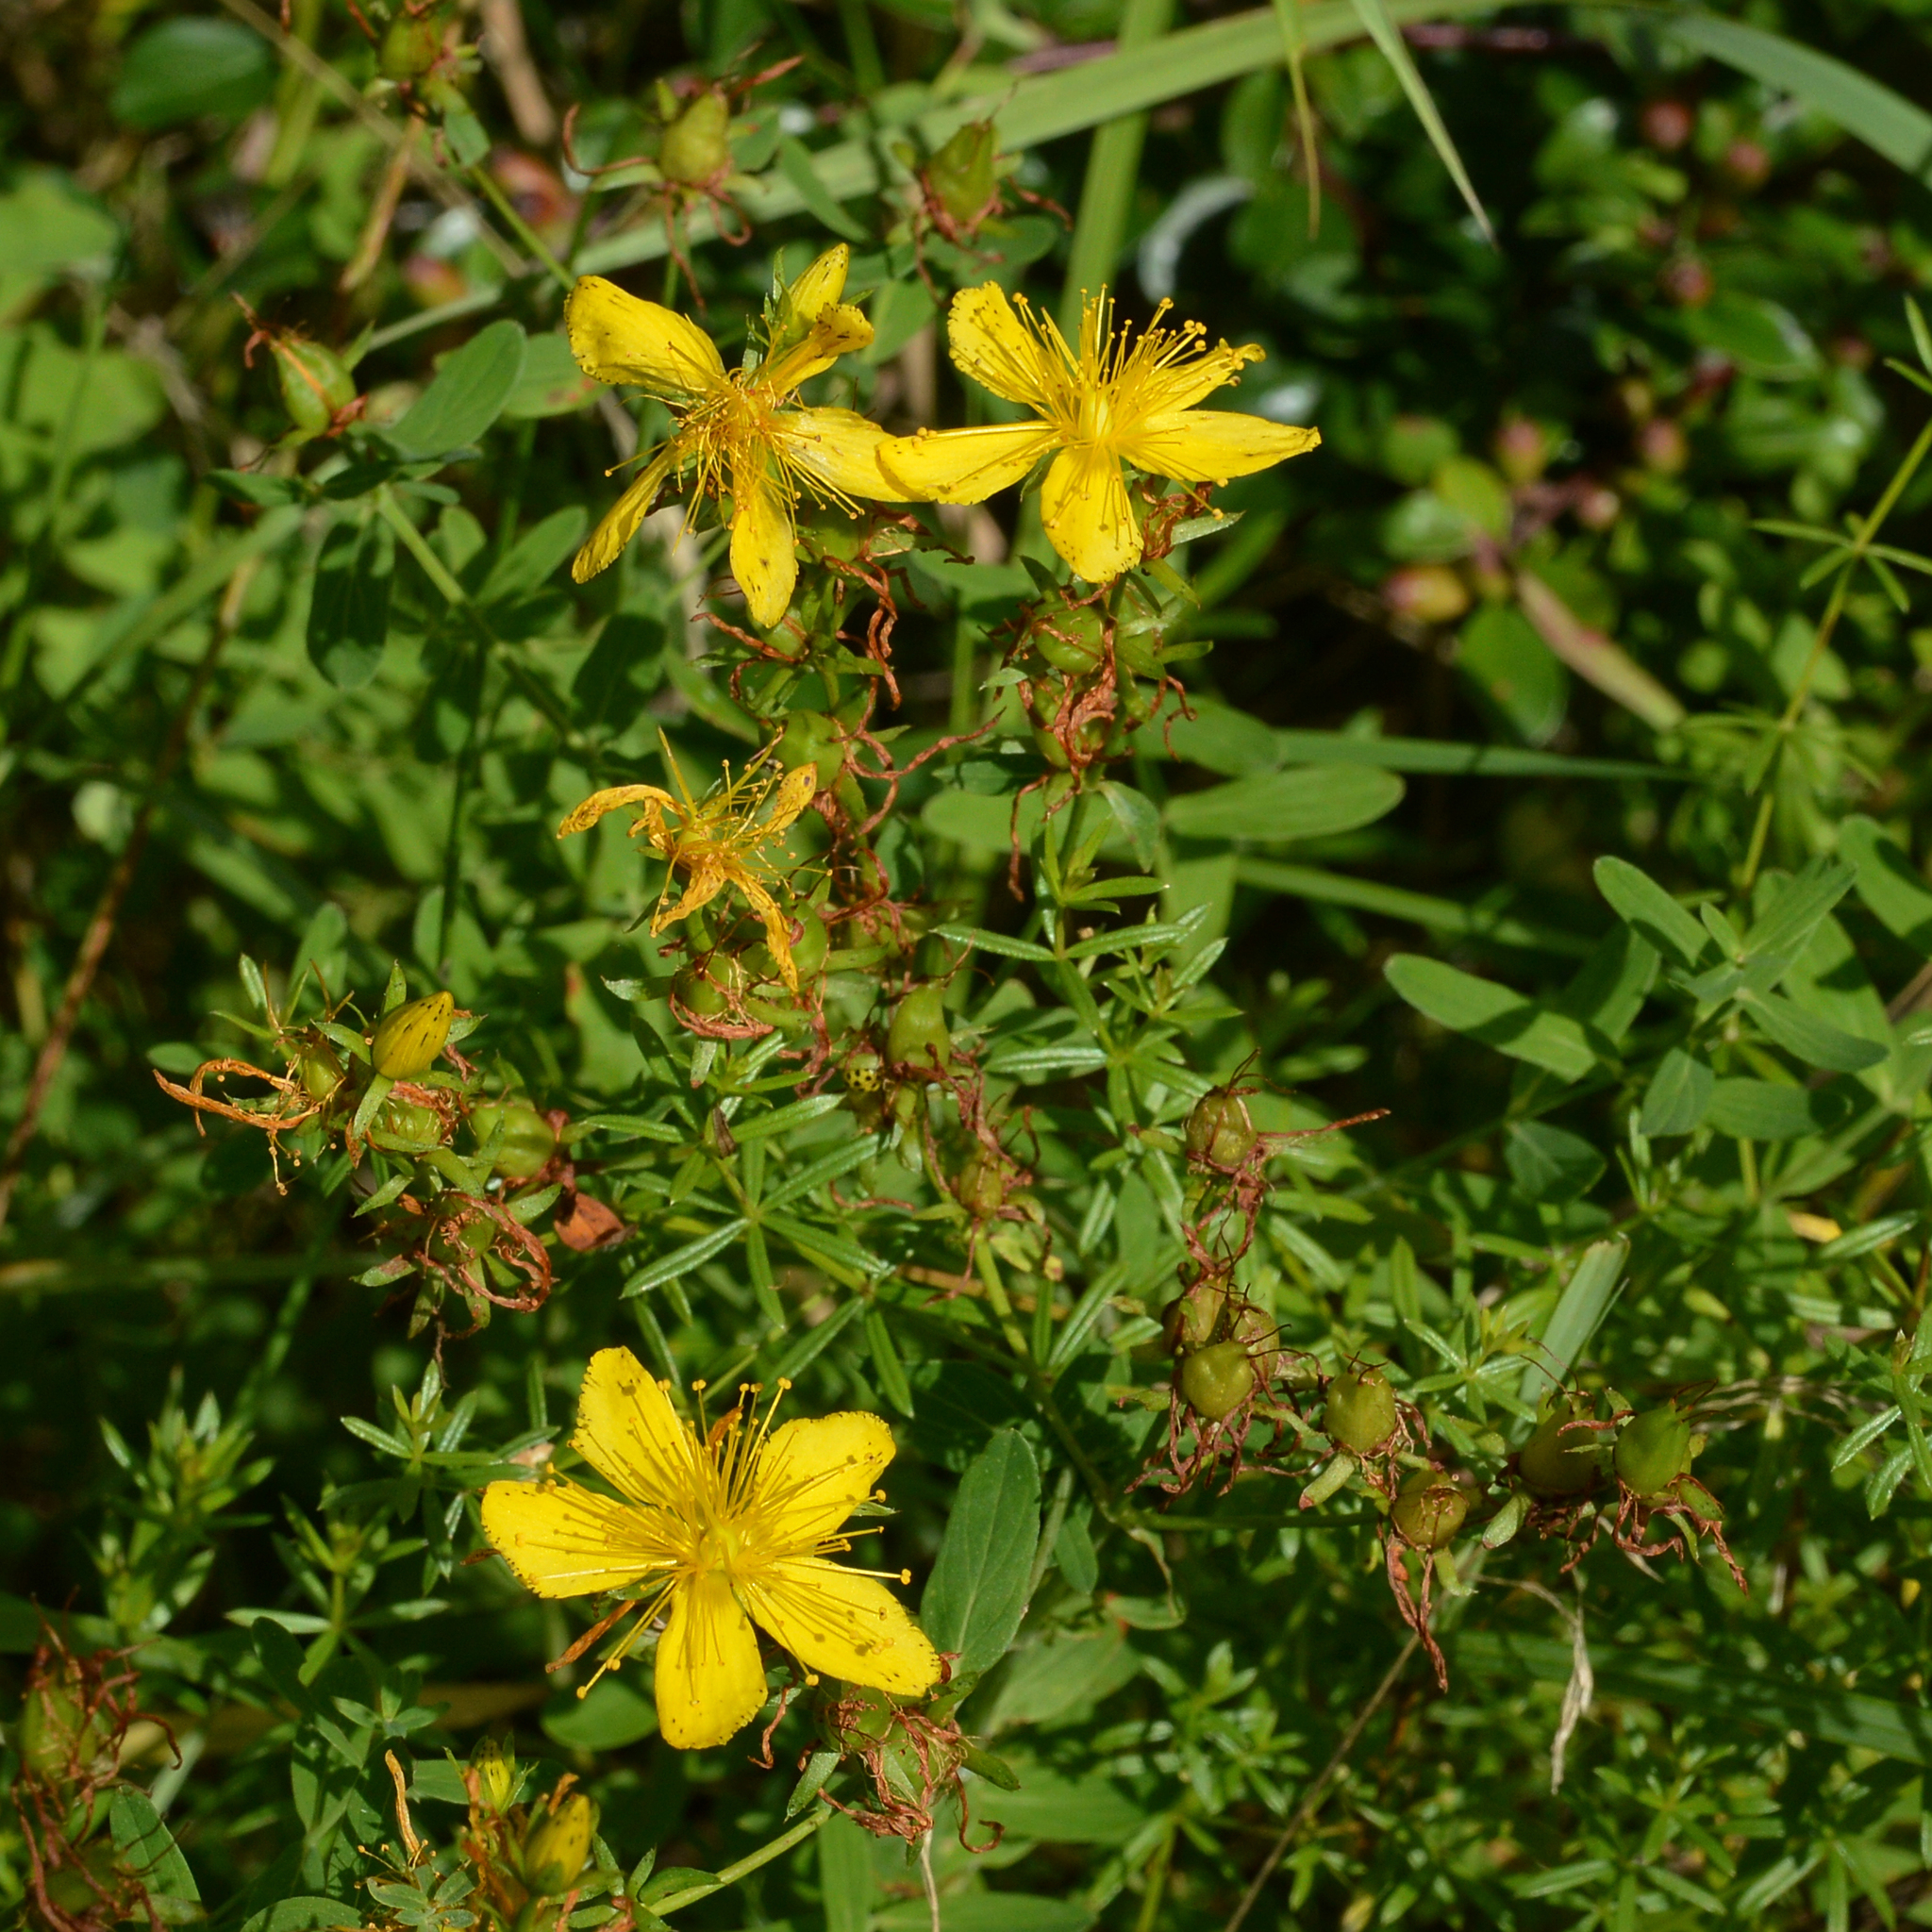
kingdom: Plantae
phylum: Tracheophyta
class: Magnoliopsida
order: Malpighiales
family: Hypericaceae
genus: Hypericum
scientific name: Hypericum perforatum
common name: Common st. johnswort
